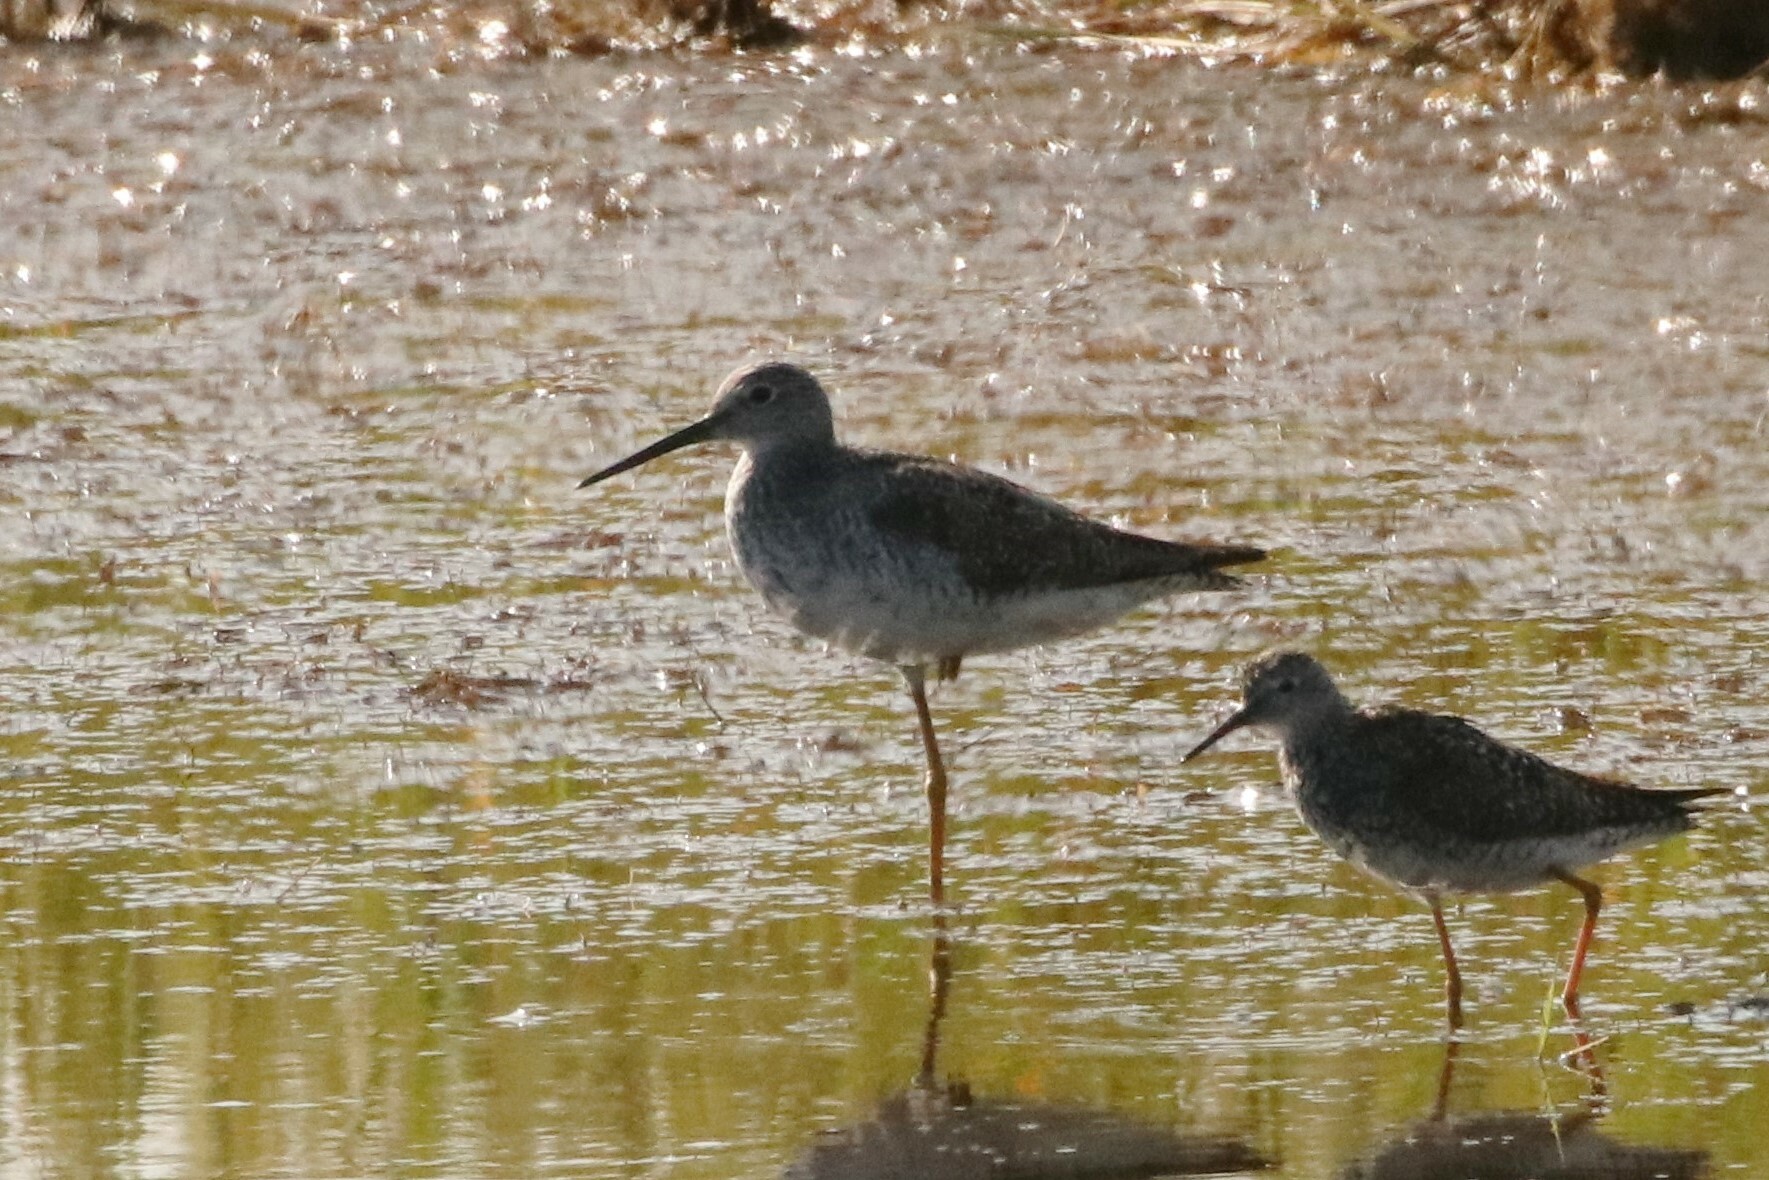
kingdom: Animalia
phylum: Chordata
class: Aves
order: Charadriiformes
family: Scolopacidae
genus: Tringa
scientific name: Tringa melanoleuca
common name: Greater yellowlegs
